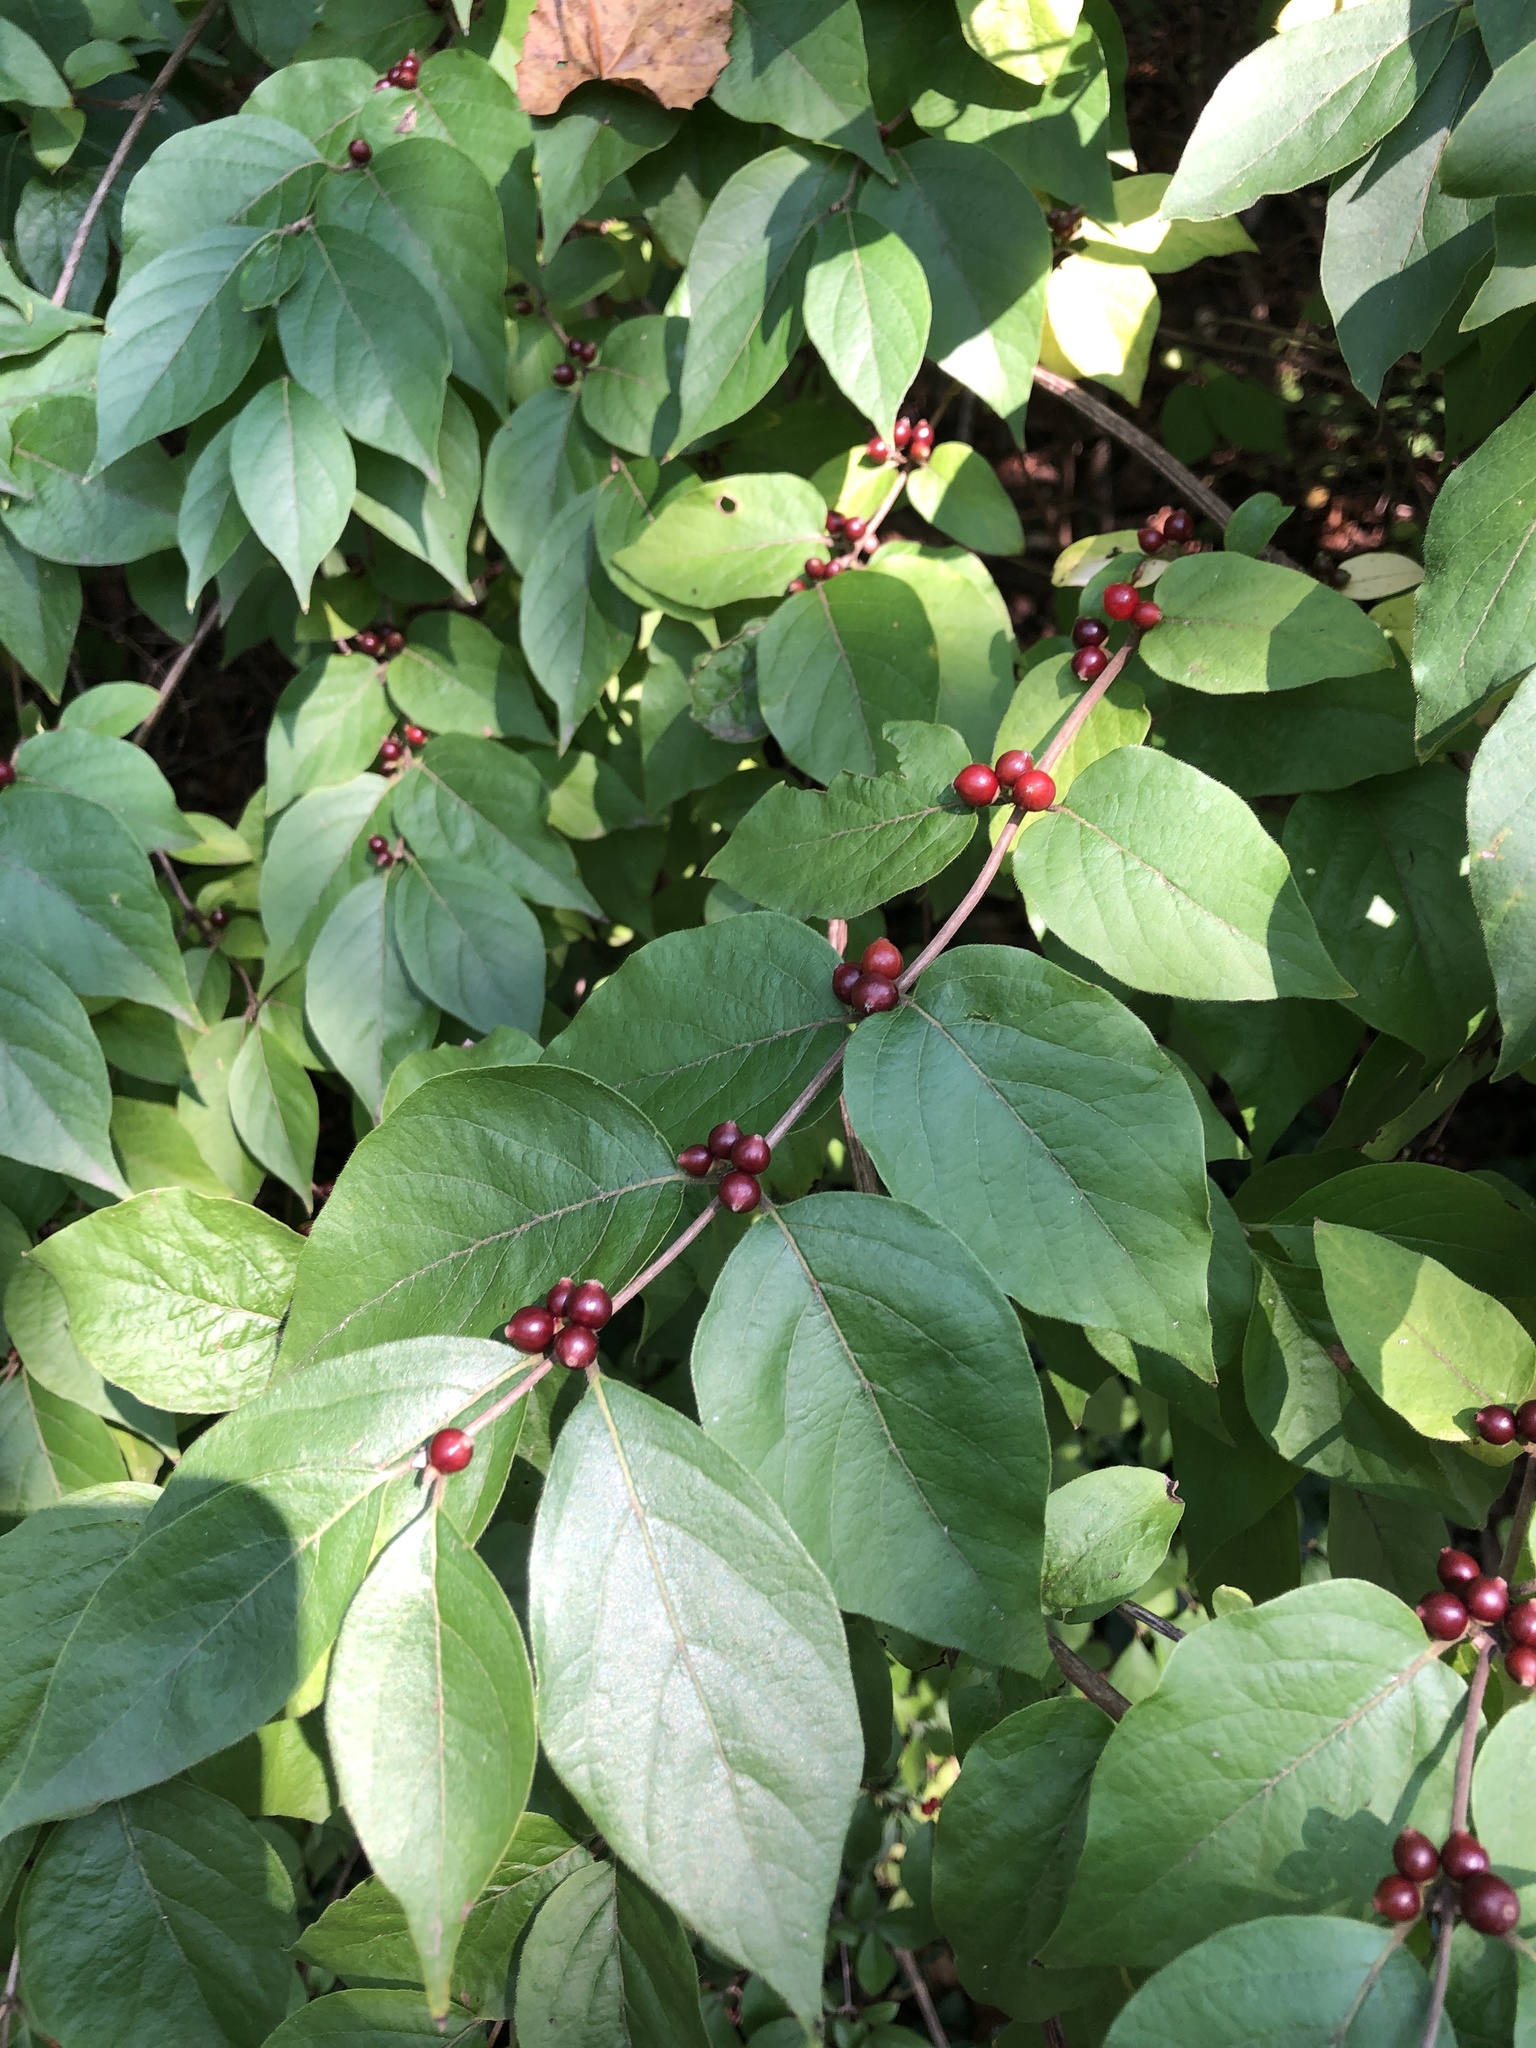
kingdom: Plantae
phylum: Tracheophyta
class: Magnoliopsida
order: Dipsacales
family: Caprifoliaceae
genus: Lonicera
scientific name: Lonicera maackii
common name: Amur honeysuckle
